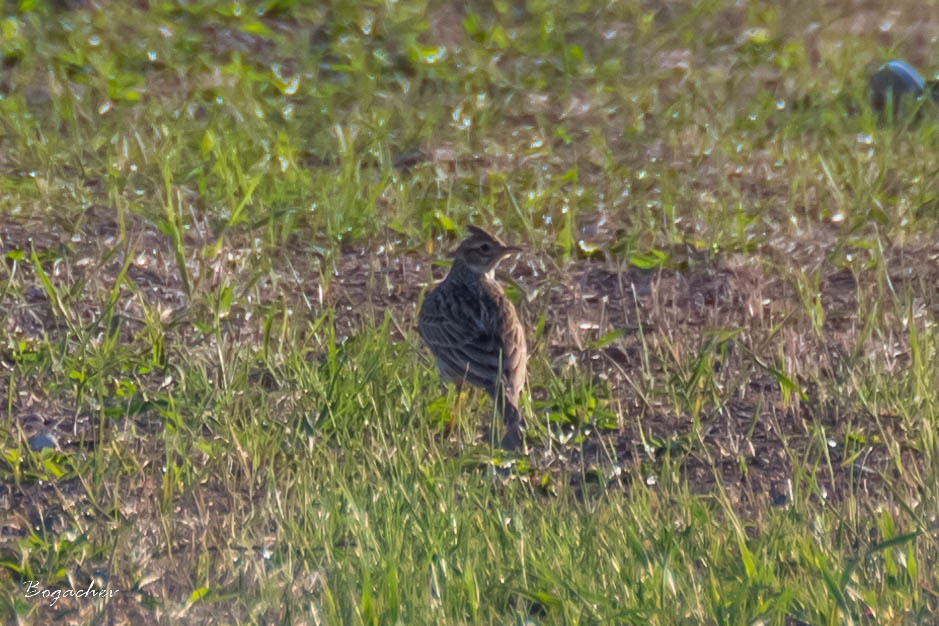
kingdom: Animalia
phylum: Chordata
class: Aves
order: Passeriformes
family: Alaudidae
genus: Alauda
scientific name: Alauda arvensis
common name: Eurasian skylark
